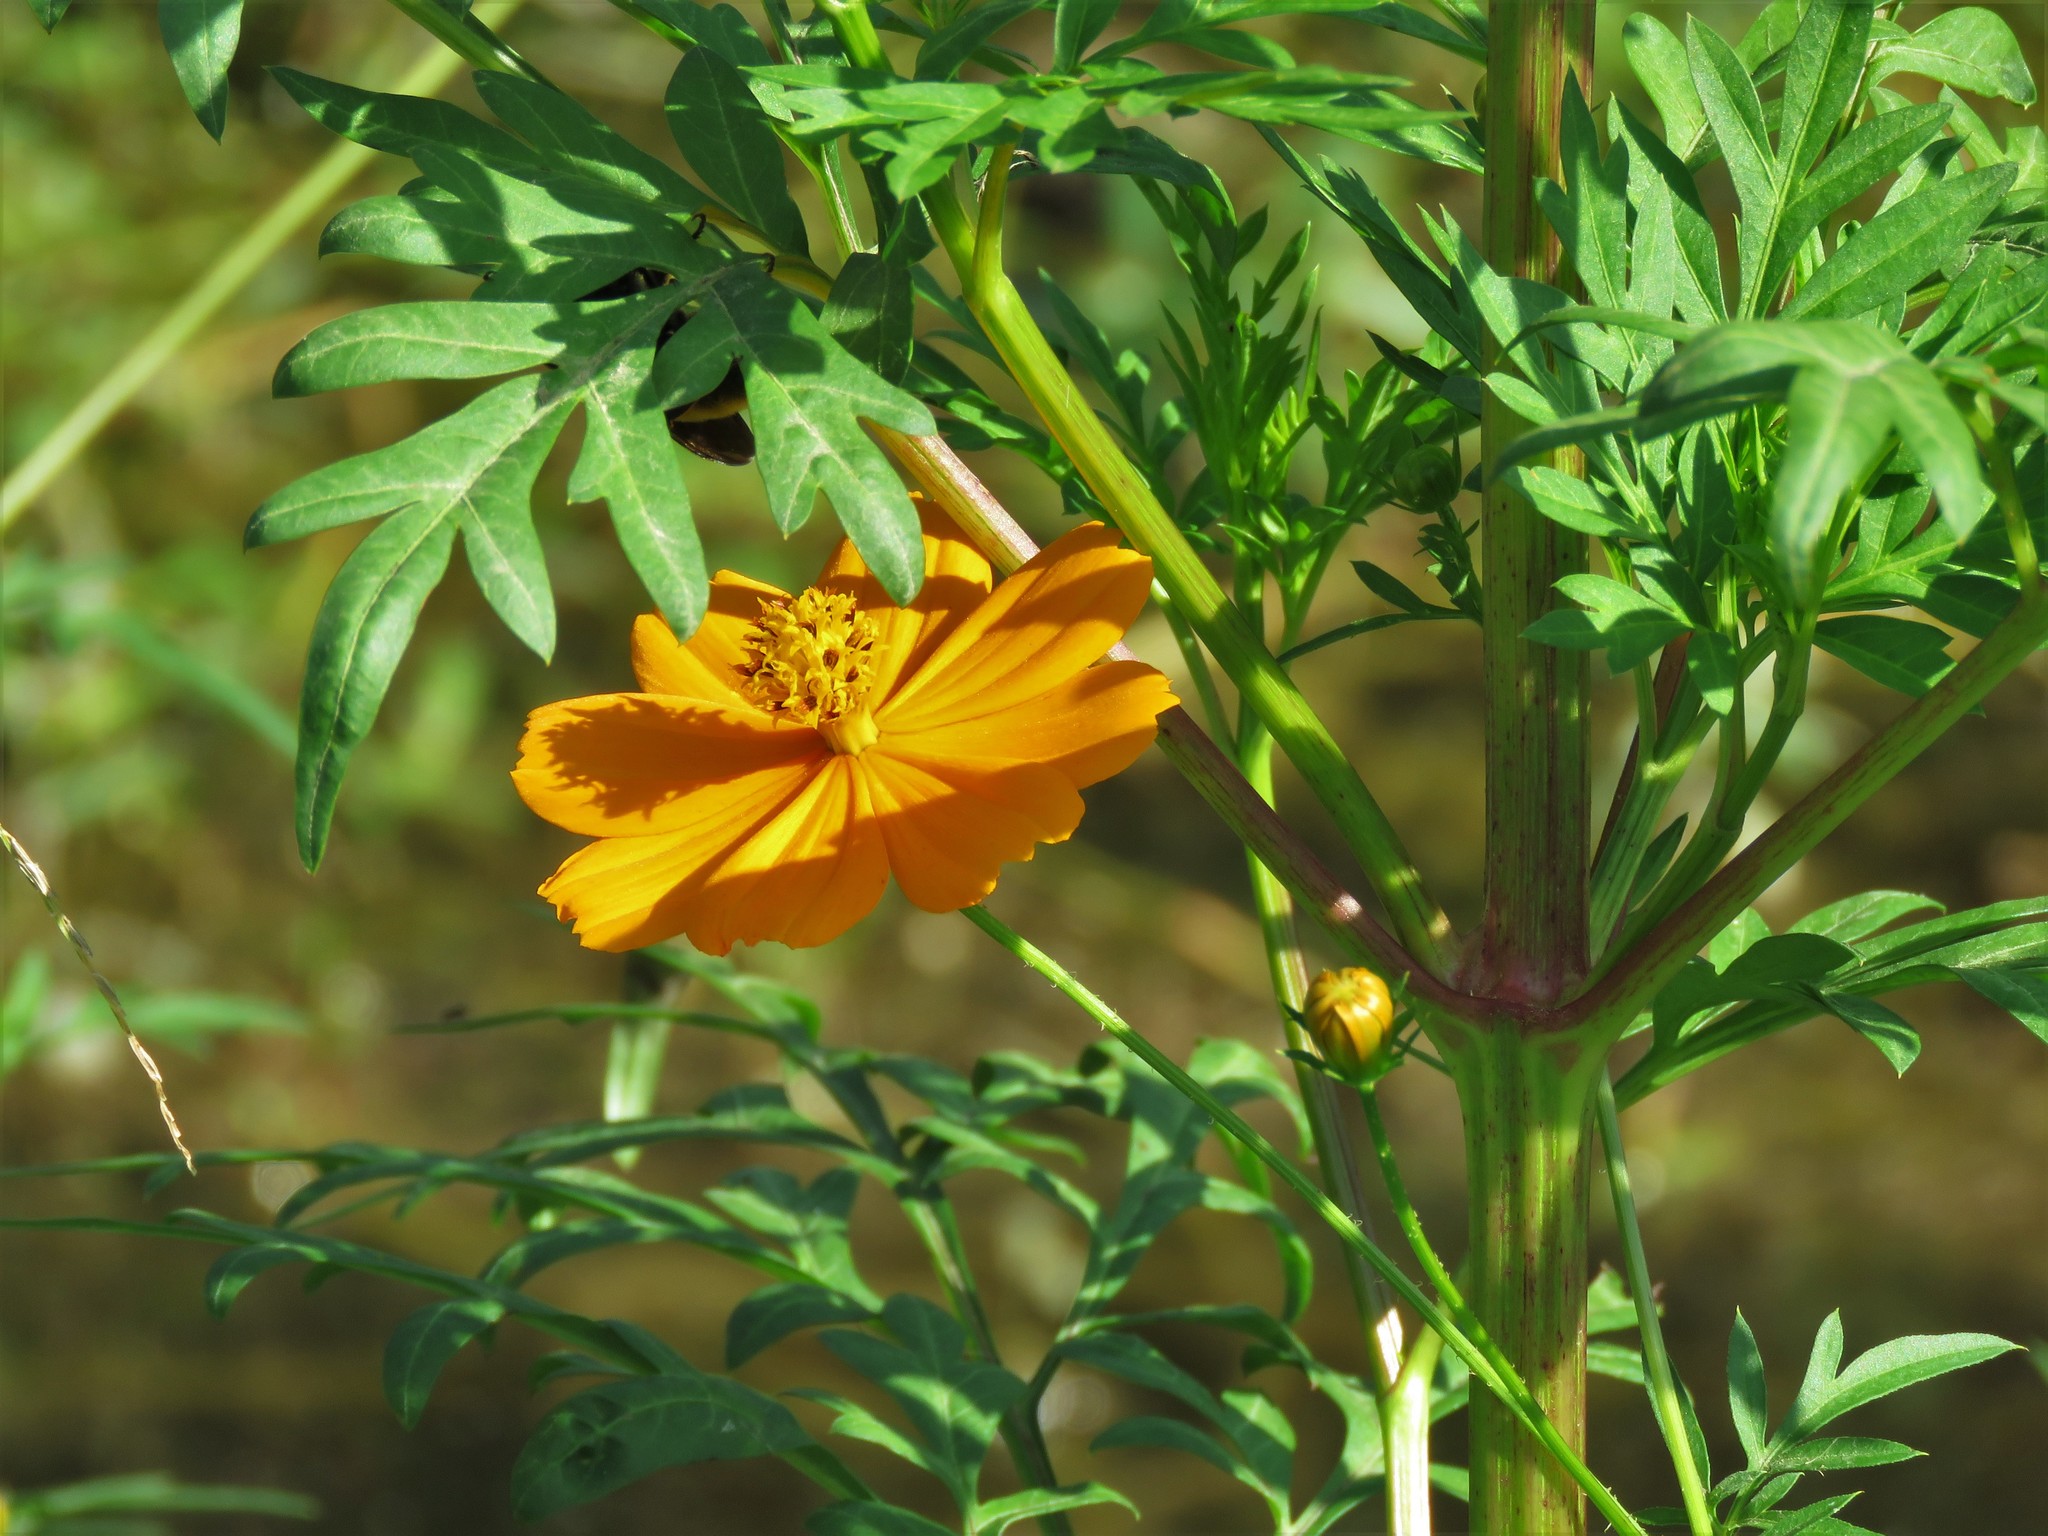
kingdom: Plantae
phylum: Tracheophyta
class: Magnoliopsida
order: Asterales
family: Asteraceae
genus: Cosmos
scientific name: Cosmos sulphureus
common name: Sulphur cosmos
